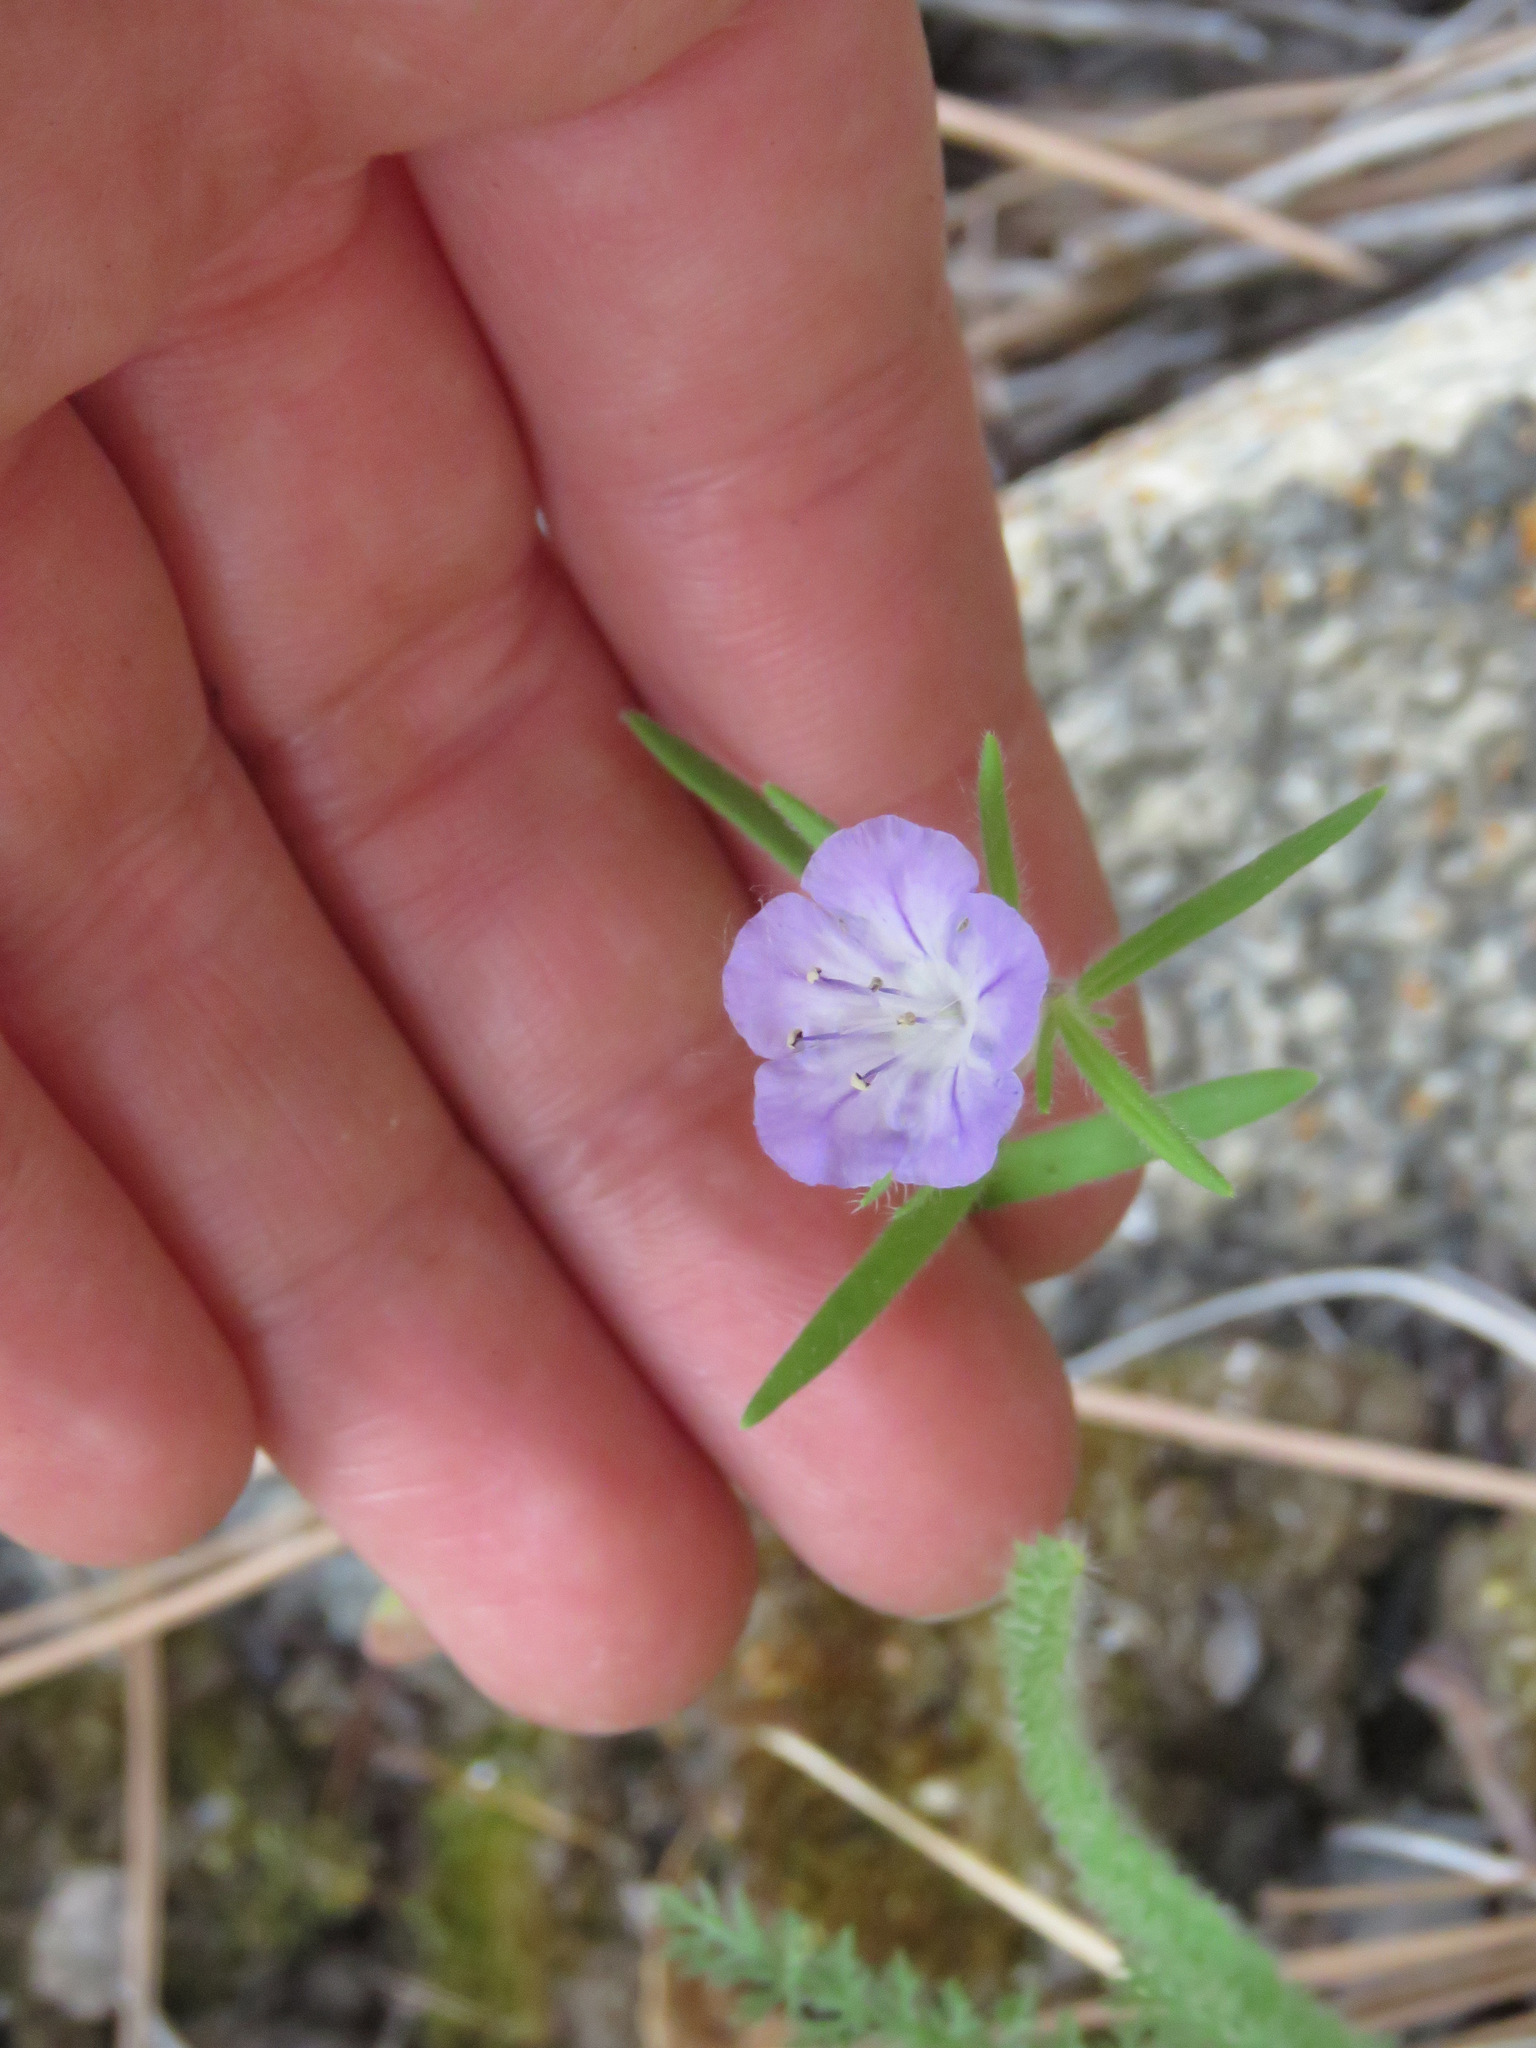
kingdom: Plantae
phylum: Tracheophyta
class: Magnoliopsida
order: Boraginales
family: Hydrophyllaceae
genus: Phacelia
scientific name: Phacelia linearis
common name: Linear-leaved phacelia
